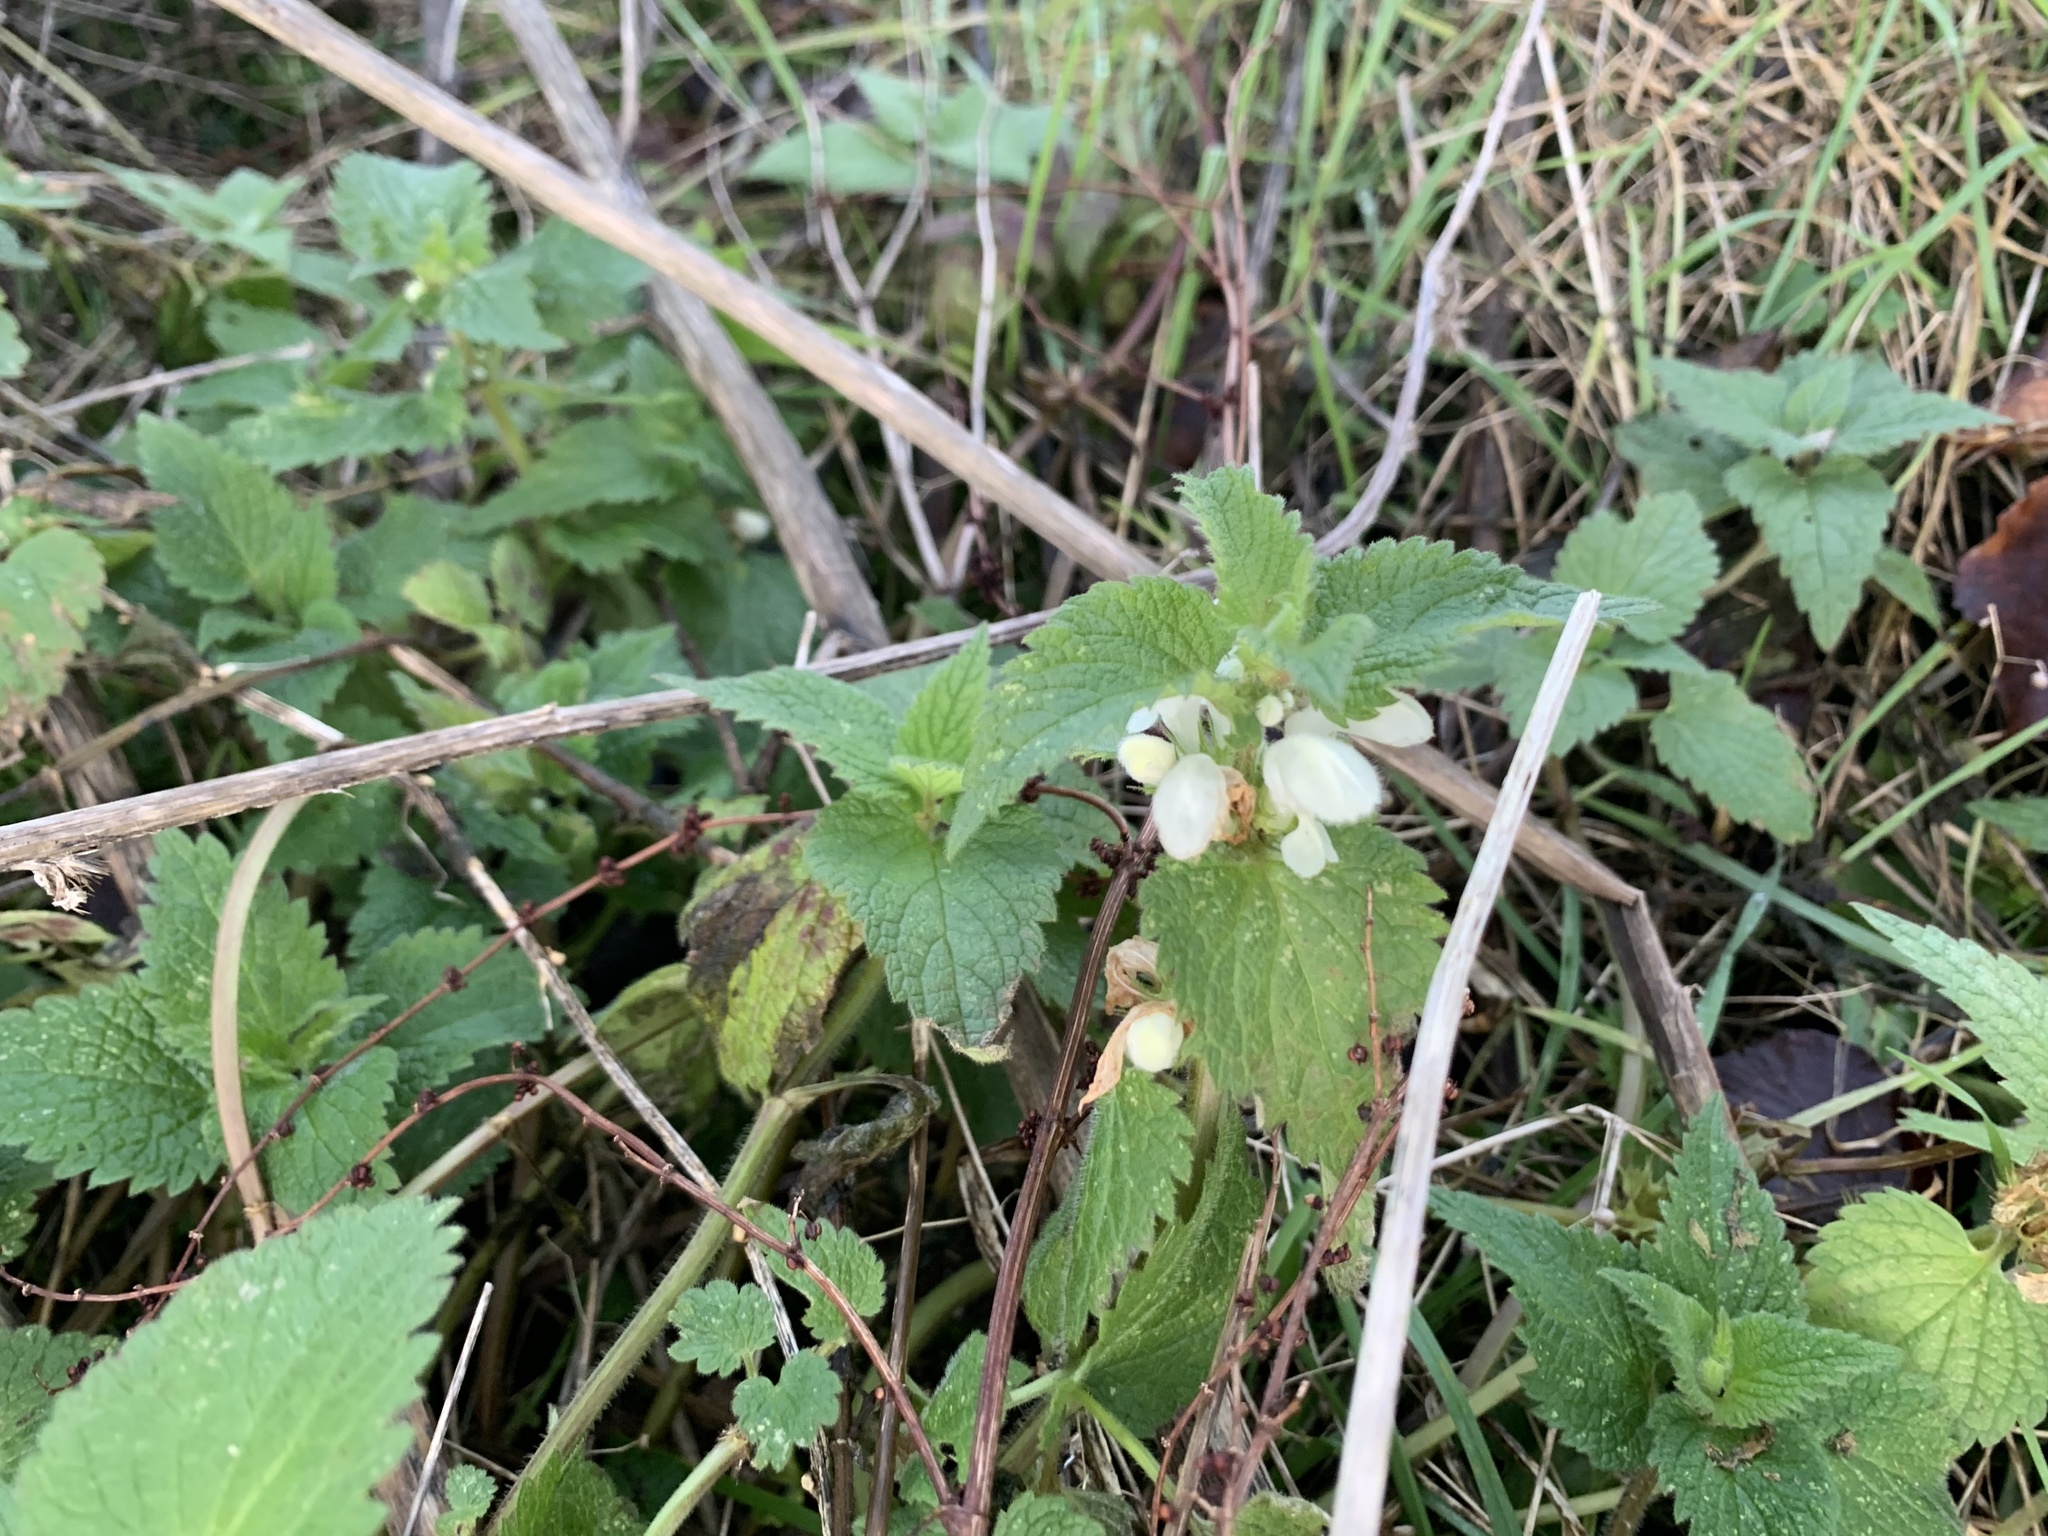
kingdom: Plantae
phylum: Tracheophyta
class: Magnoliopsida
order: Lamiales
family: Lamiaceae
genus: Lamium
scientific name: Lamium album
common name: White dead-nettle
